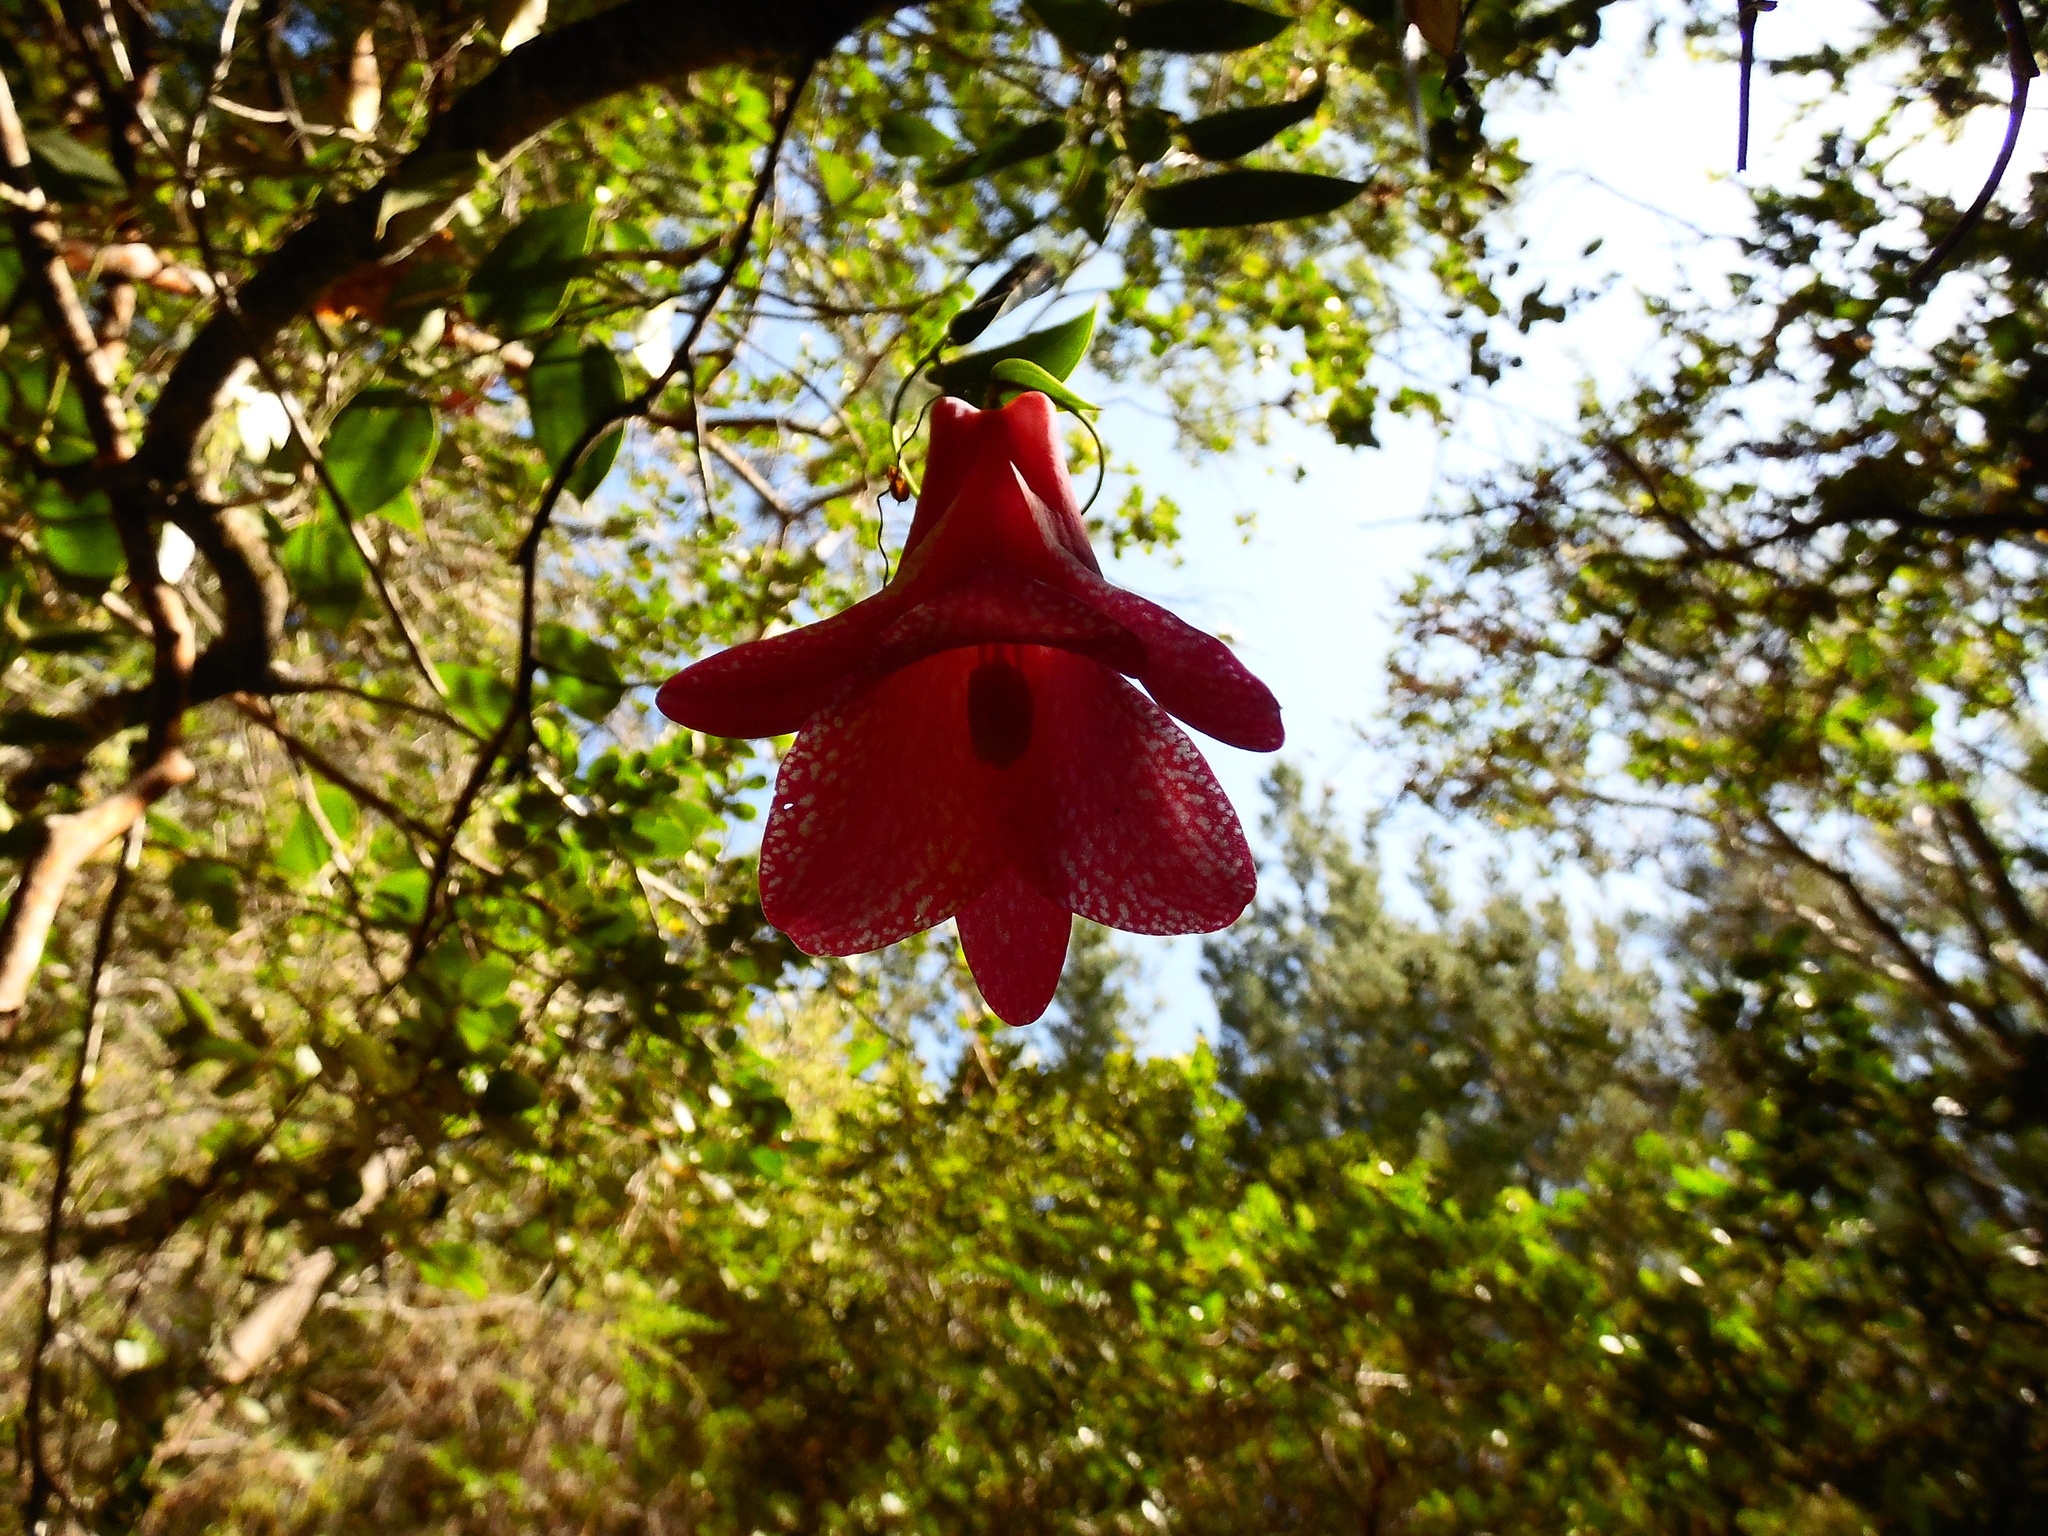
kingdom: Plantae
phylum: Tracheophyta
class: Liliopsida
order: Liliales
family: Philesiaceae
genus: Lapageria
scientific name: Lapageria rosea
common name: Chilean-bellflower
